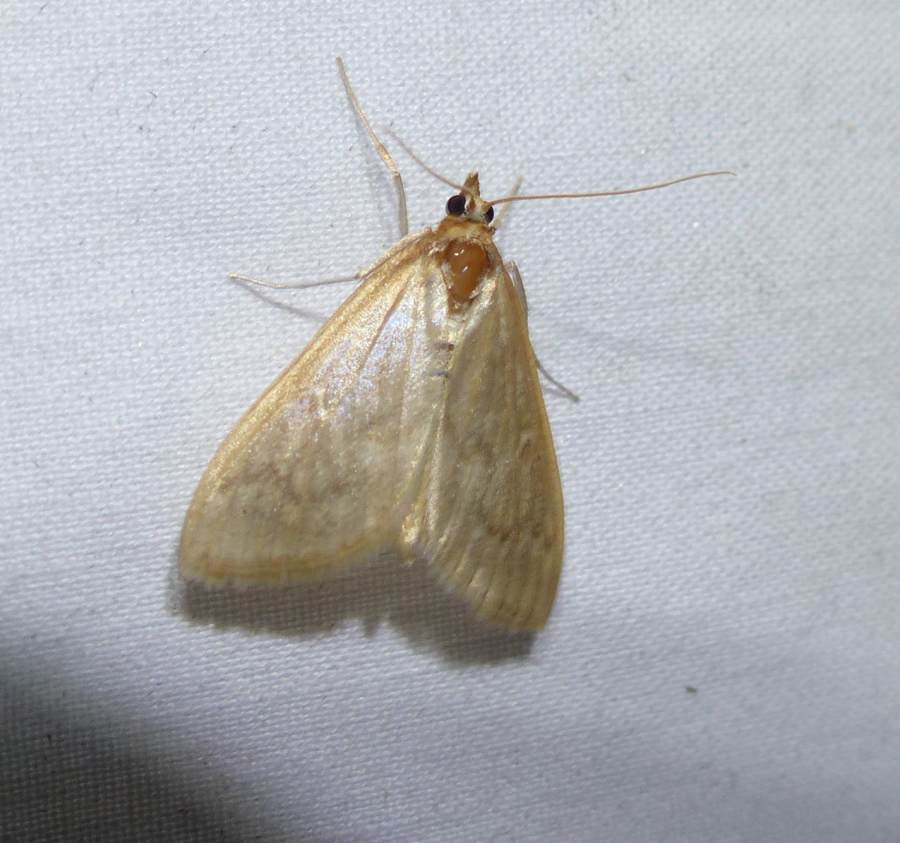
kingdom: Animalia
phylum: Arthropoda
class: Insecta
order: Lepidoptera
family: Crambidae
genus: Anania
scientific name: Anania Framinghamia helvalis
